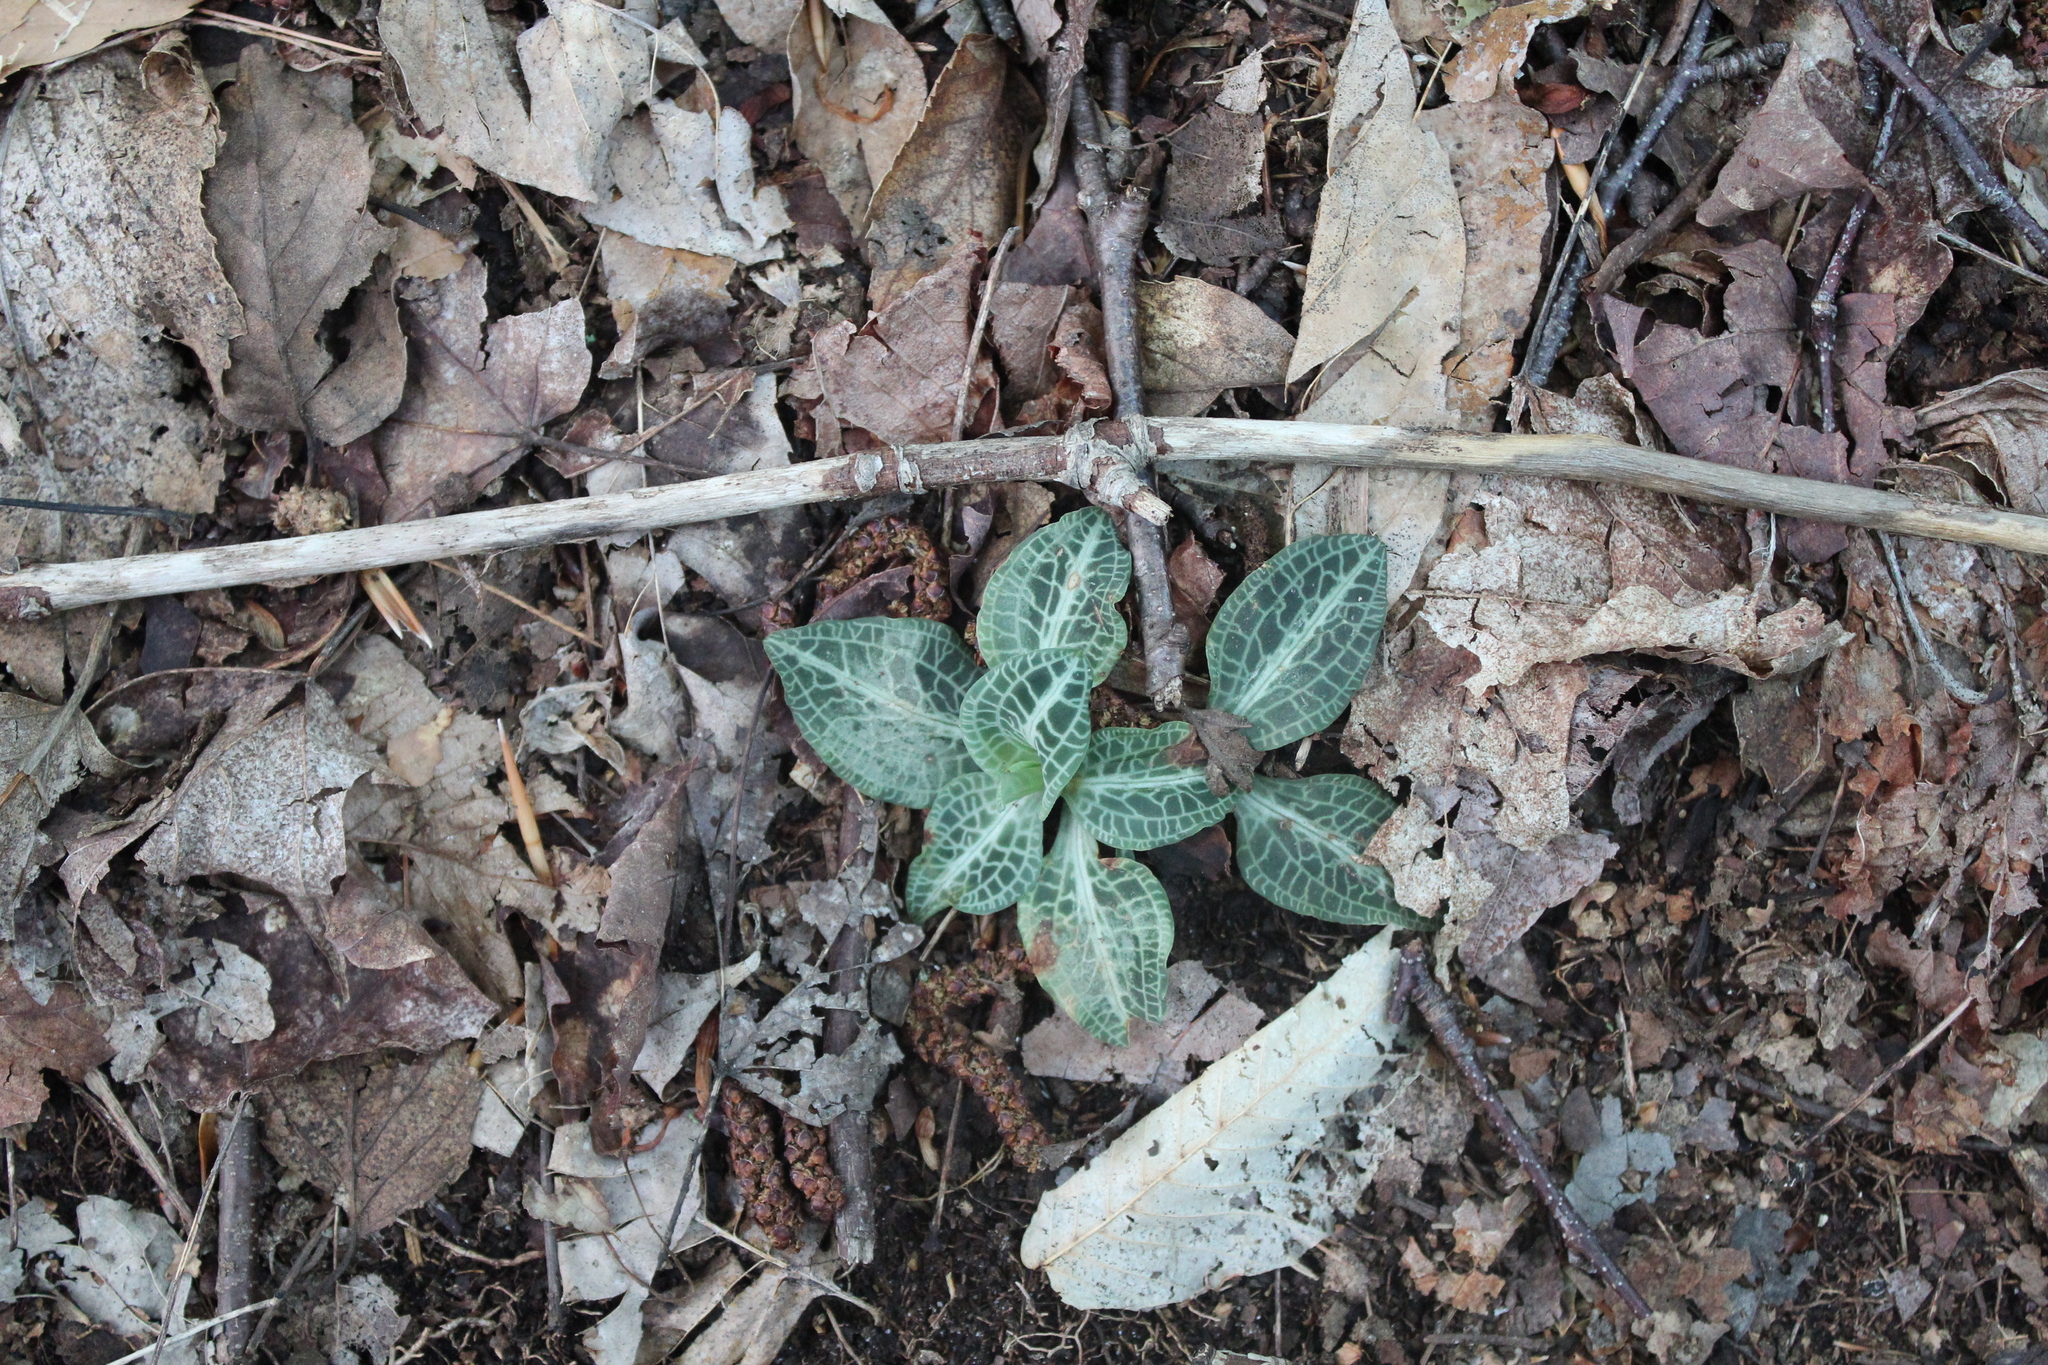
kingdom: Plantae
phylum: Tracheophyta
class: Liliopsida
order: Asparagales
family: Orchidaceae
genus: Goodyera
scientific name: Goodyera pubescens
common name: Downy rattlesnake-plantain
